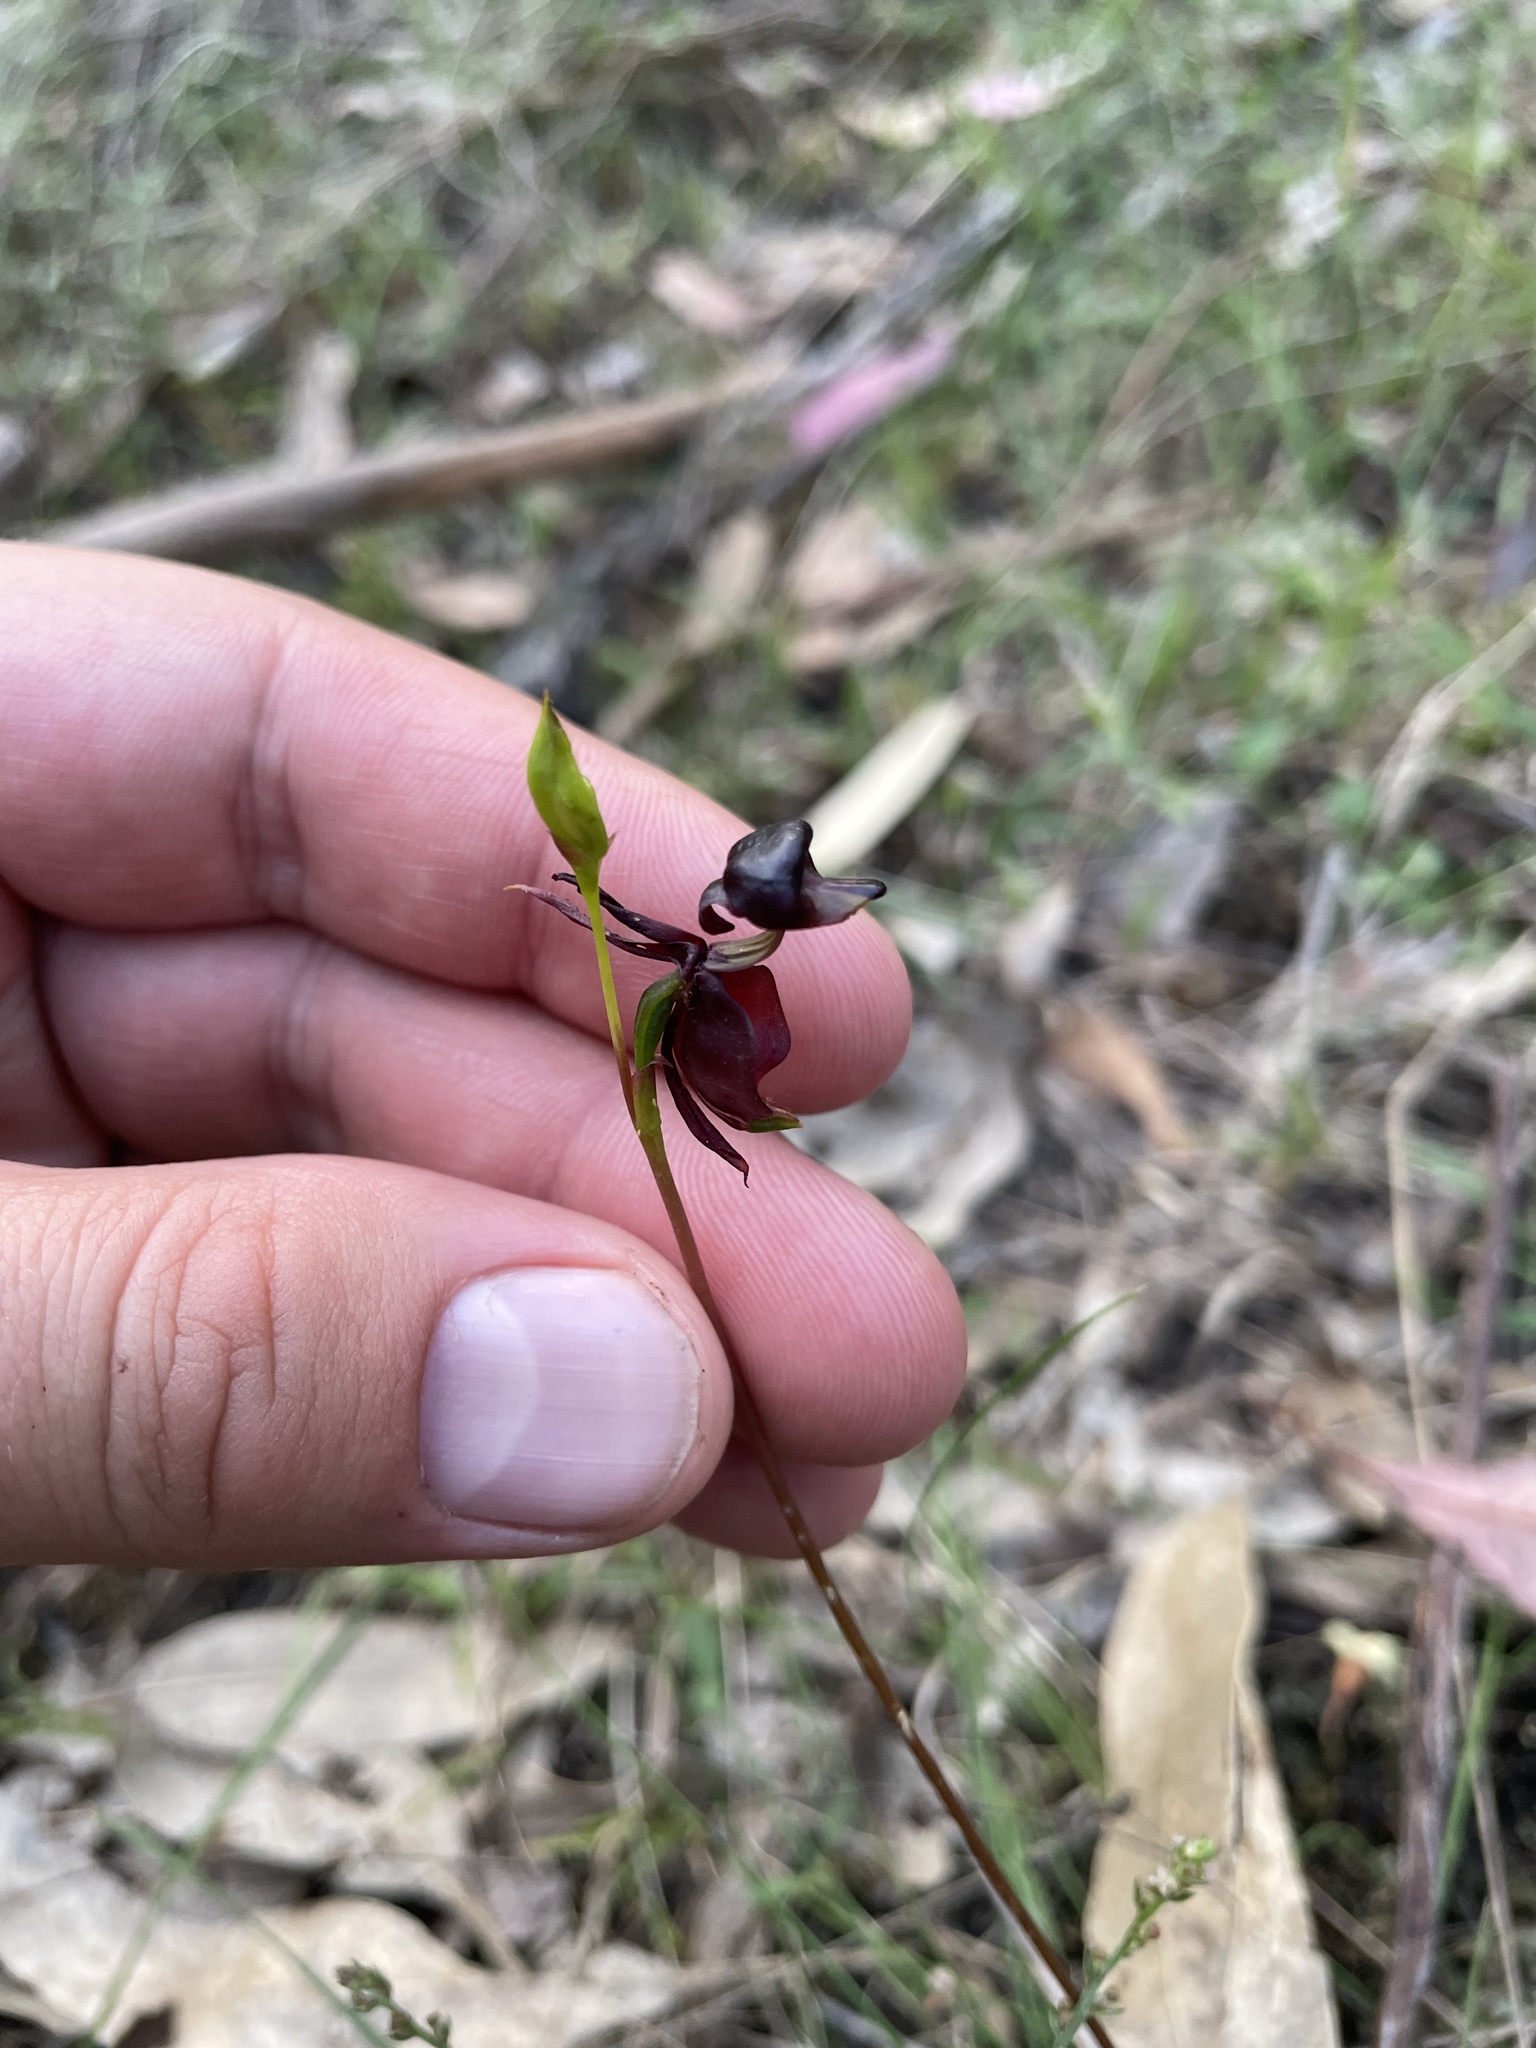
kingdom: Plantae
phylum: Tracheophyta
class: Liliopsida
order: Asparagales
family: Orchidaceae
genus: Caleana
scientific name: Caleana major
